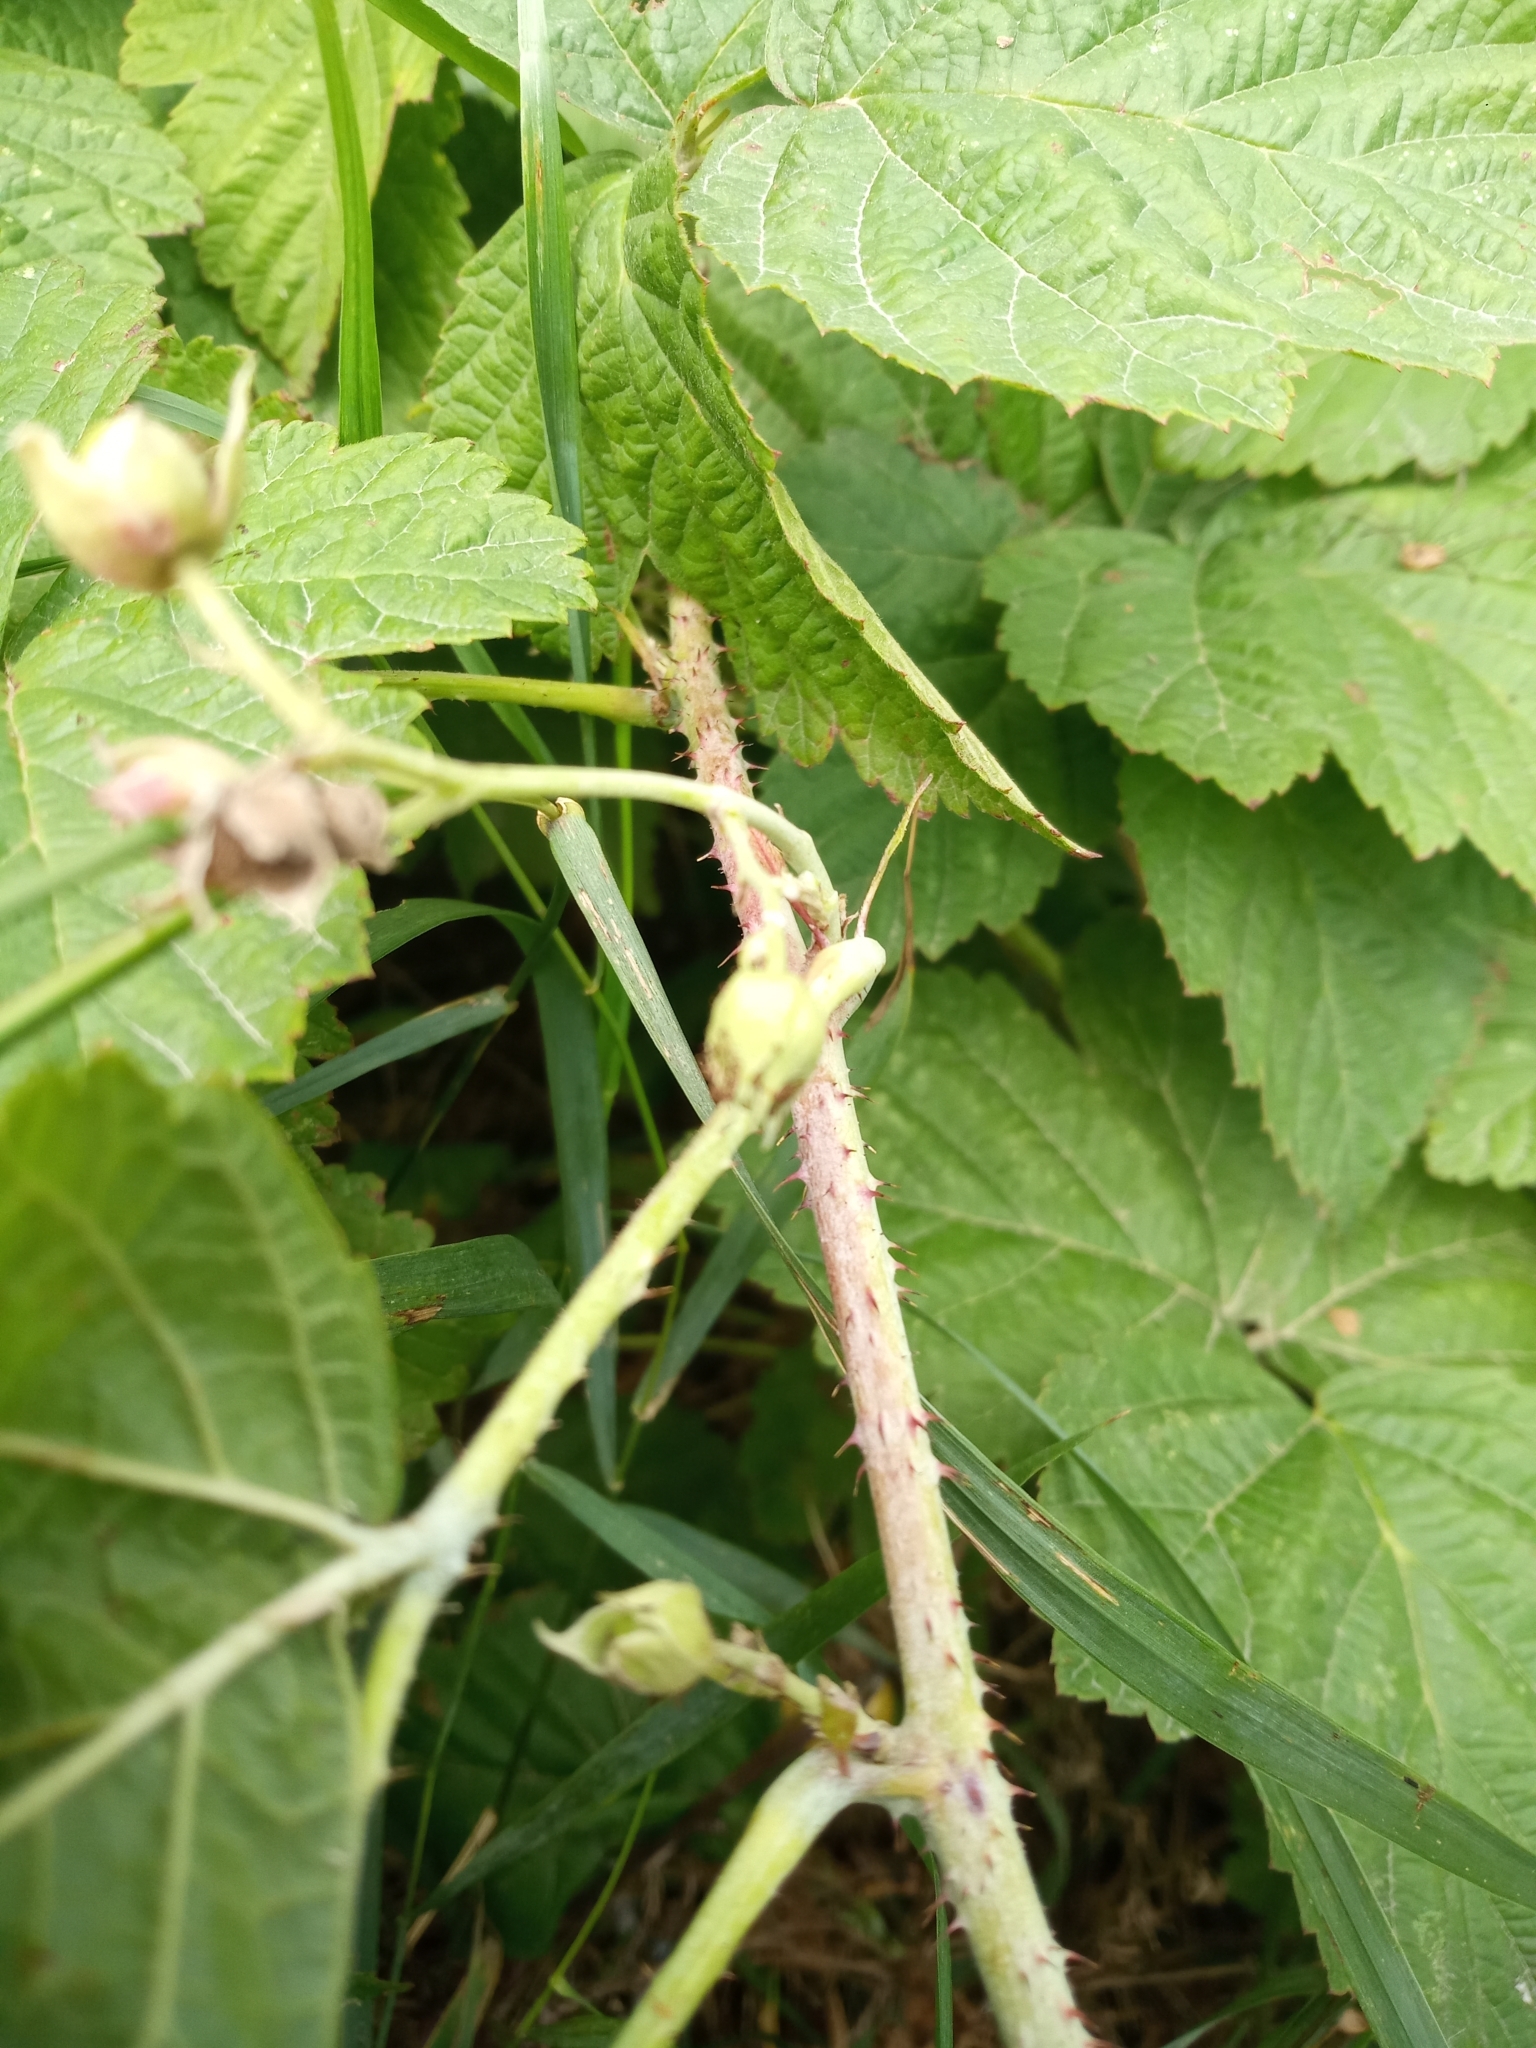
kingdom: Plantae
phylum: Tracheophyta
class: Magnoliopsida
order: Rosales
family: Rosaceae
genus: Rubus
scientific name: Rubus caesius
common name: Dewberry
